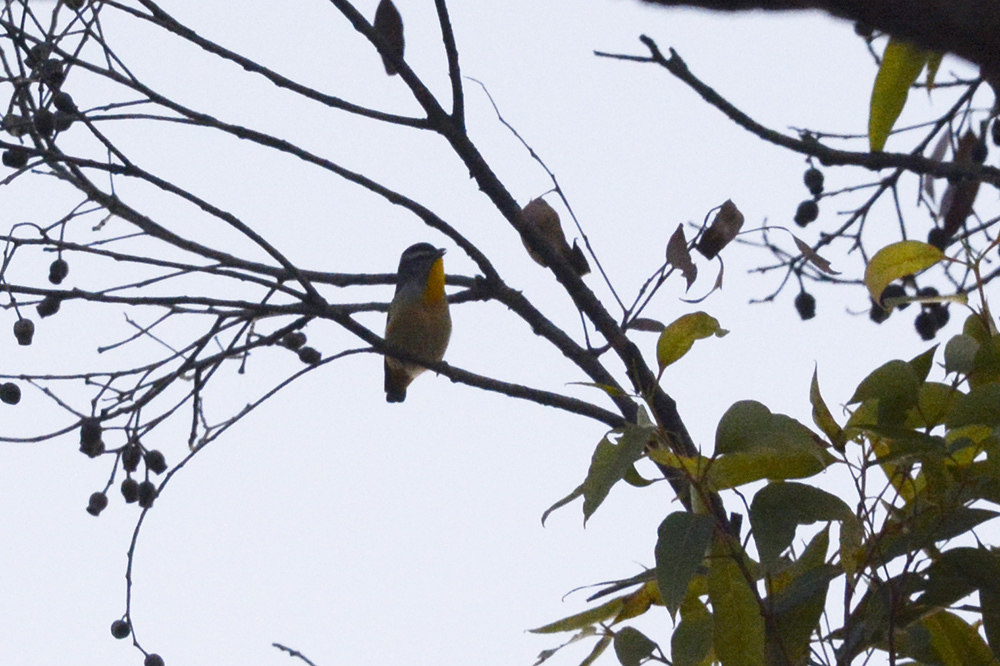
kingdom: Animalia
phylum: Chordata
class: Aves
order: Passeriformes
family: Pardalotidae
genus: Pardalotus
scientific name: Pardalotus punctatus
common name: Spotted pardalote
